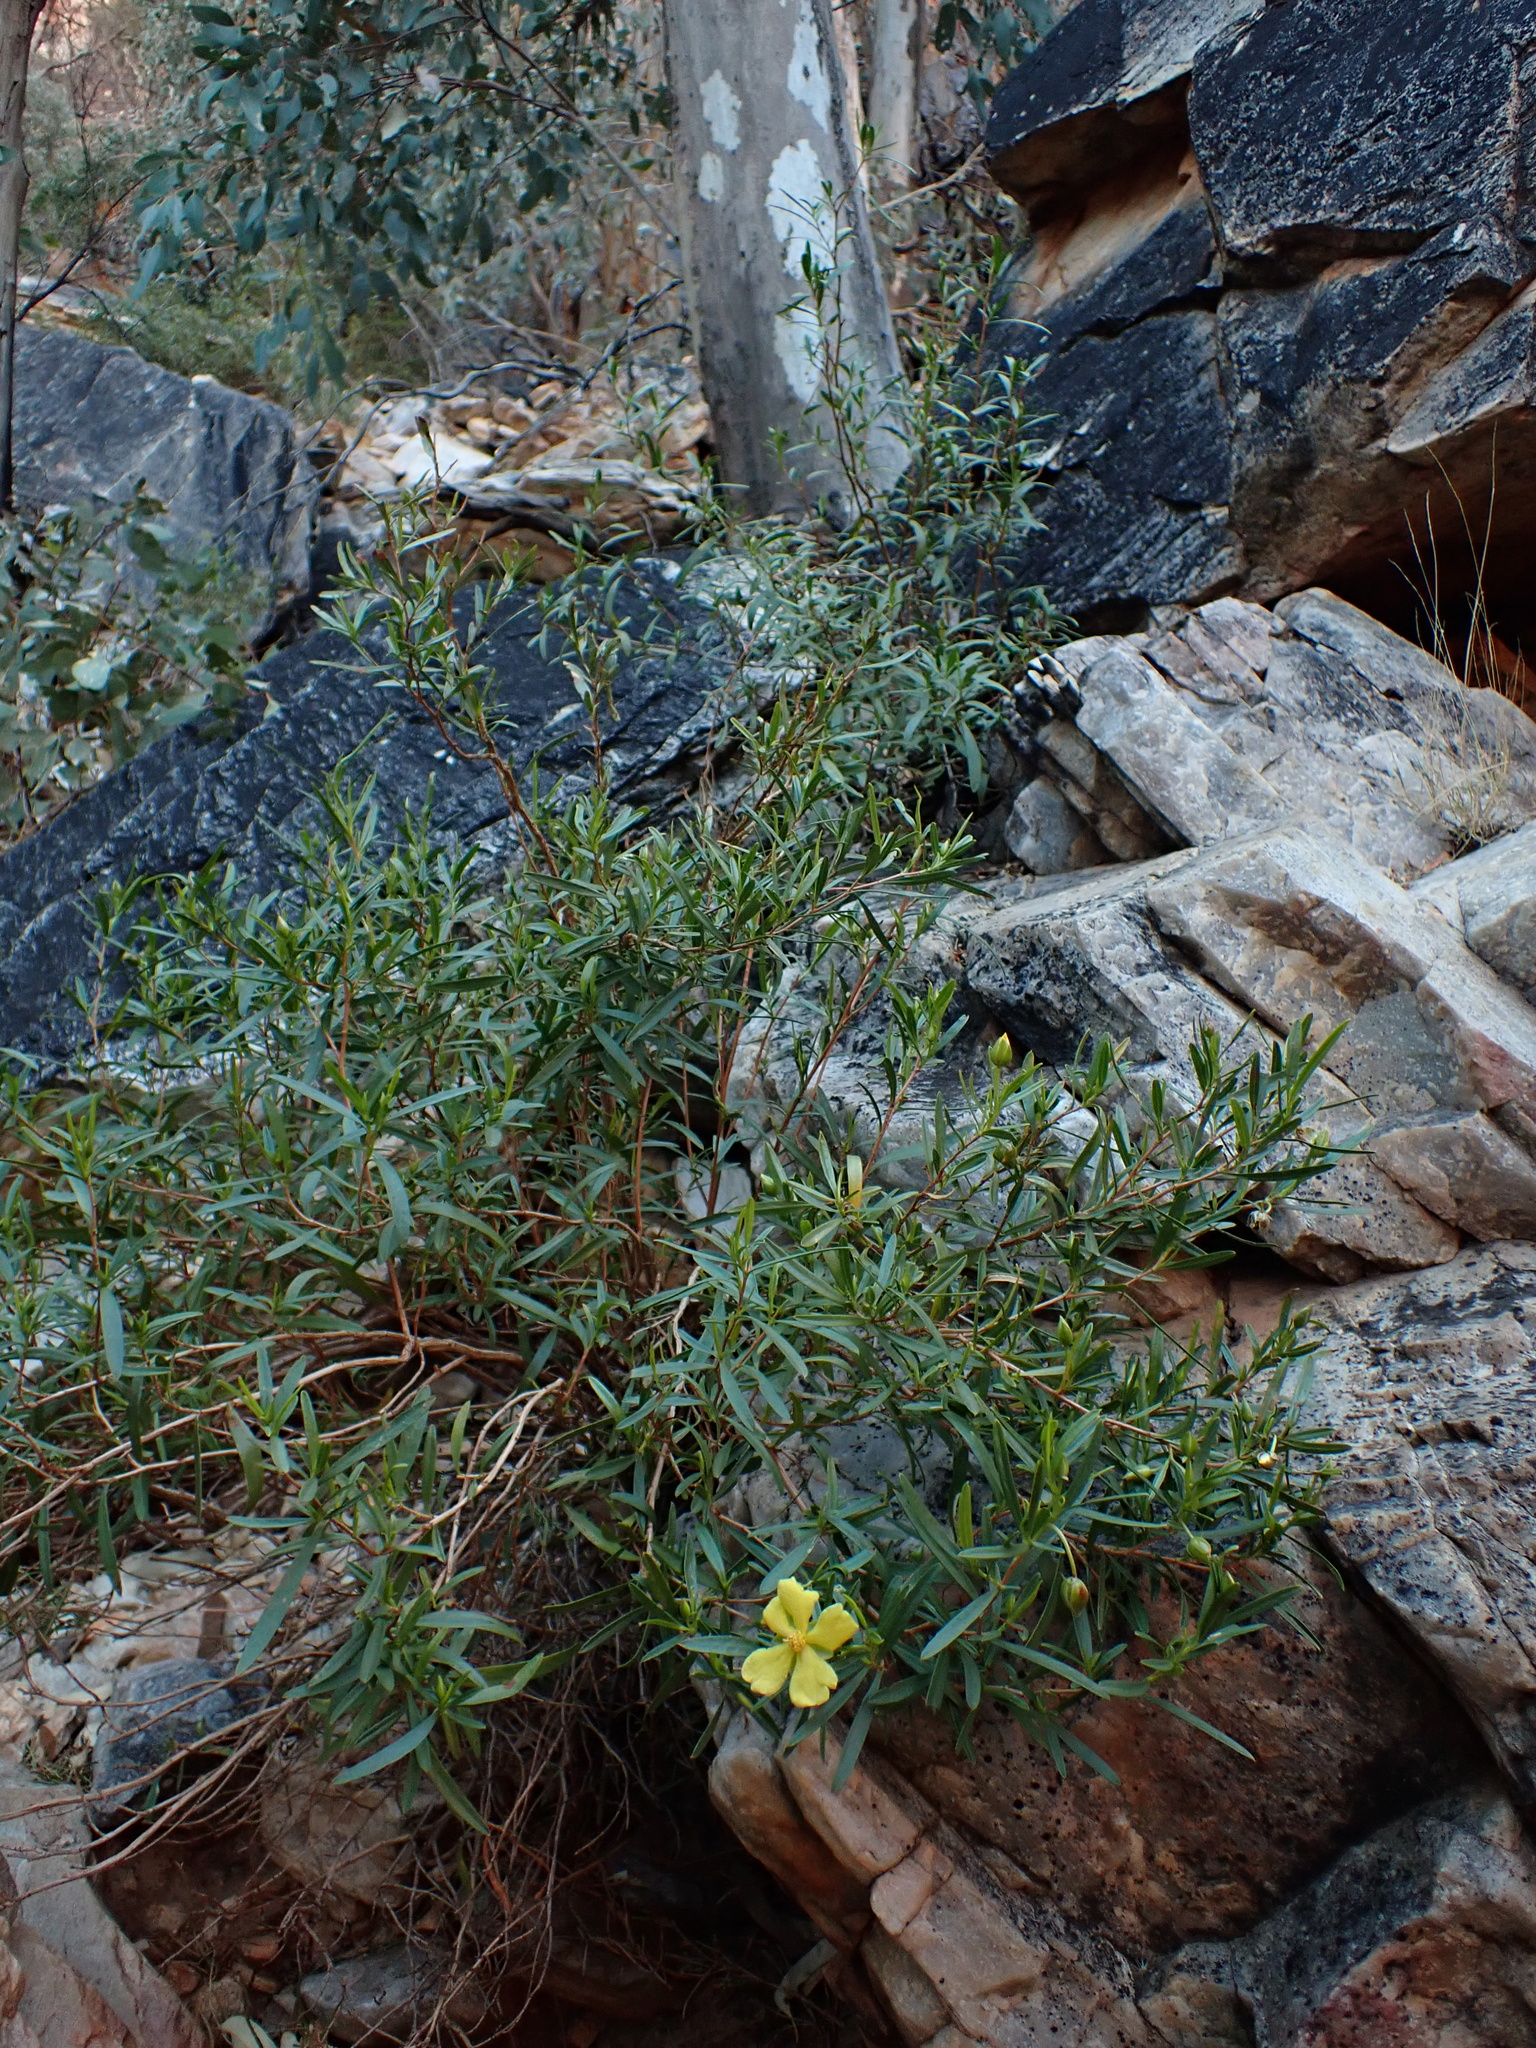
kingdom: Plantae
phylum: Tracheophyta
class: Magnoliopsida
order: Dilleniales
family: Dilleniaceae
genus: Hibbertia
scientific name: Hibbertia glaberrima
